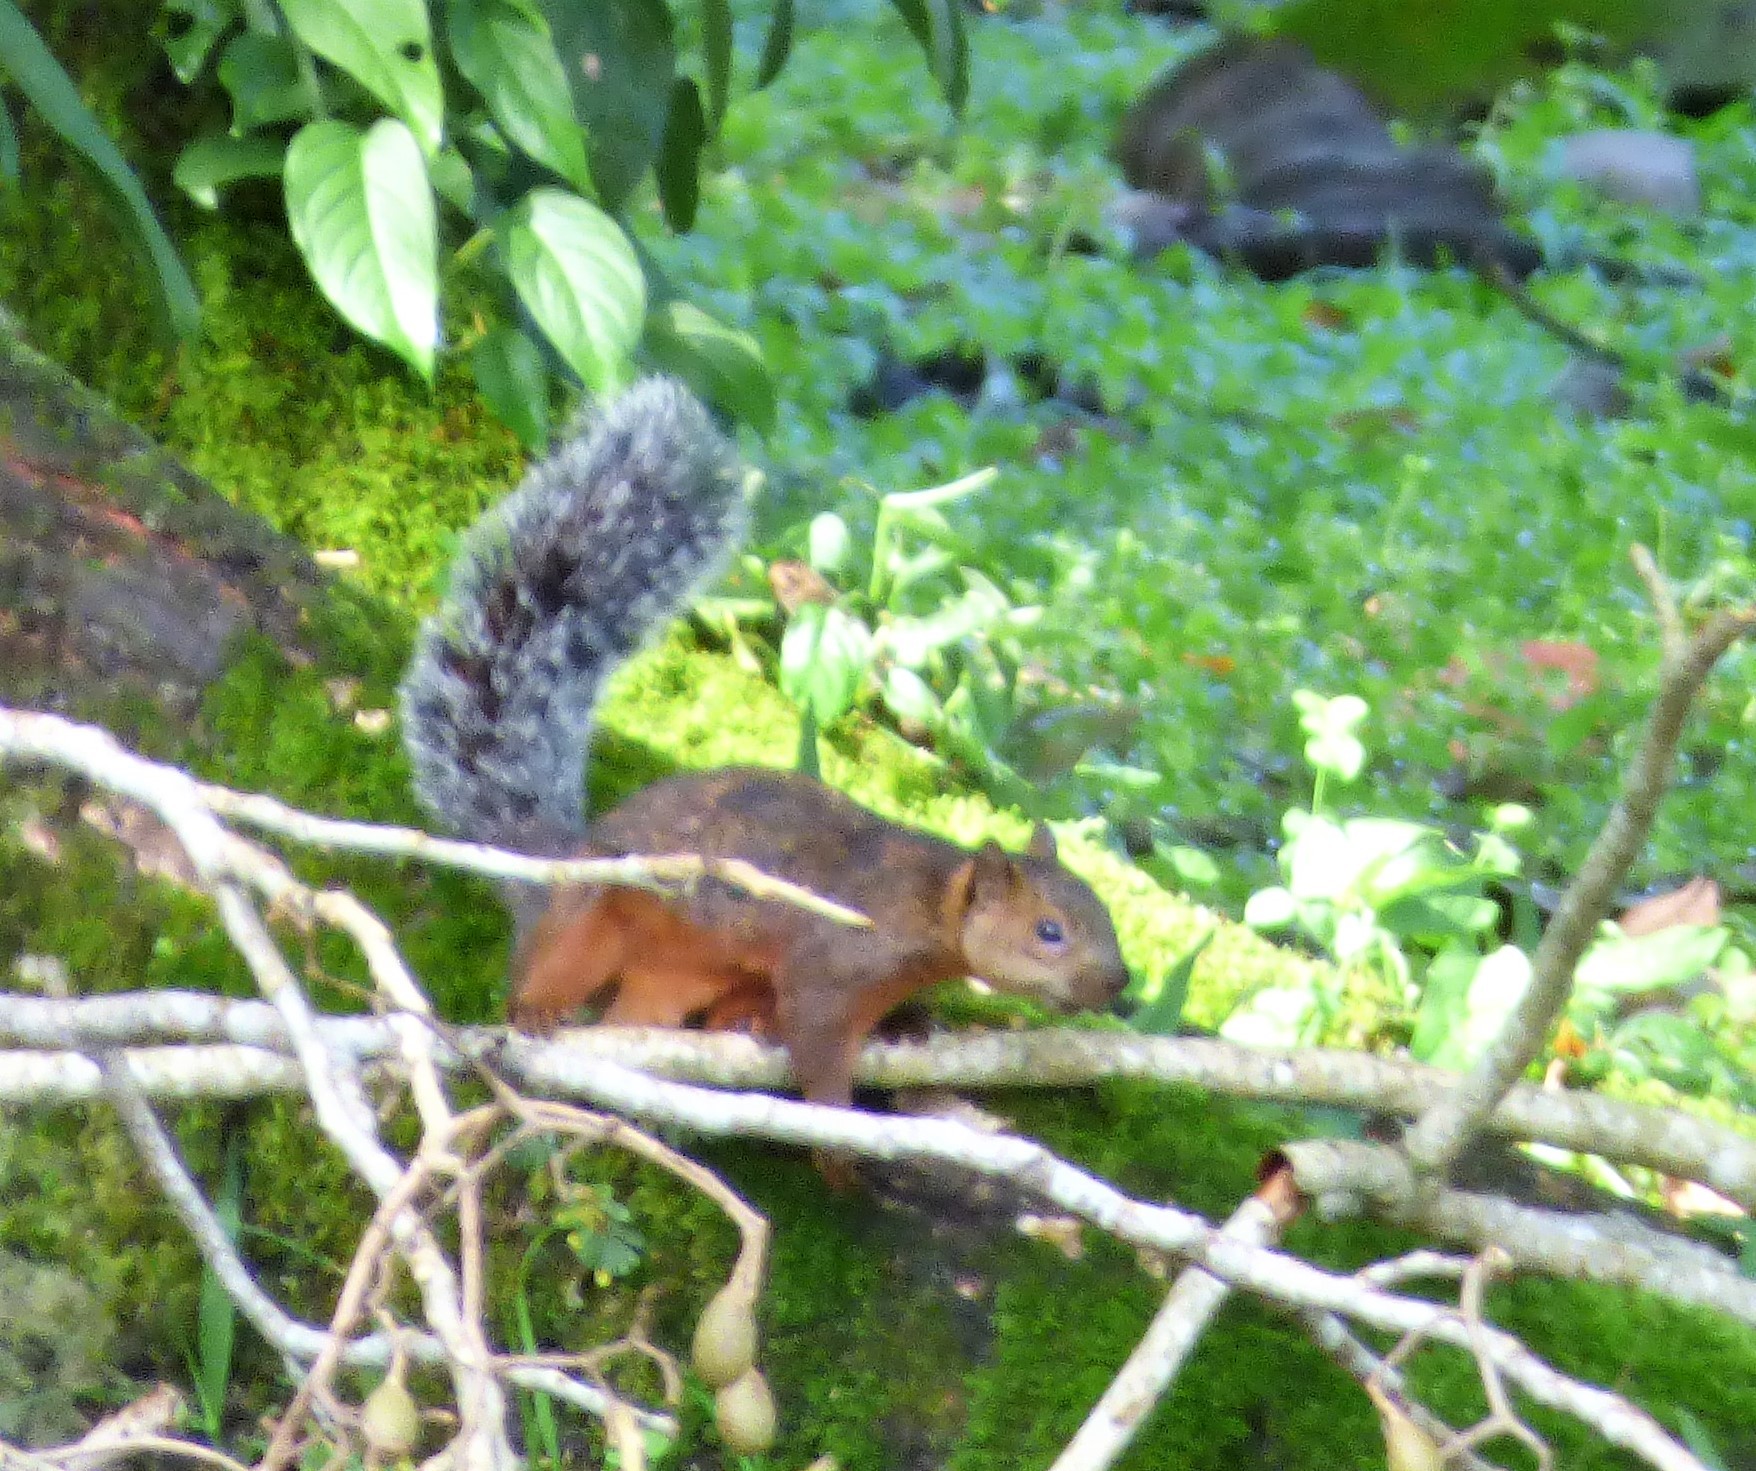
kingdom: Animalia
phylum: Chordata
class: Mammalia
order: Rodentia
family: Sciuridae
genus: Sciurus
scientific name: Sciurus variegatoides
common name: Variegated squirrel
